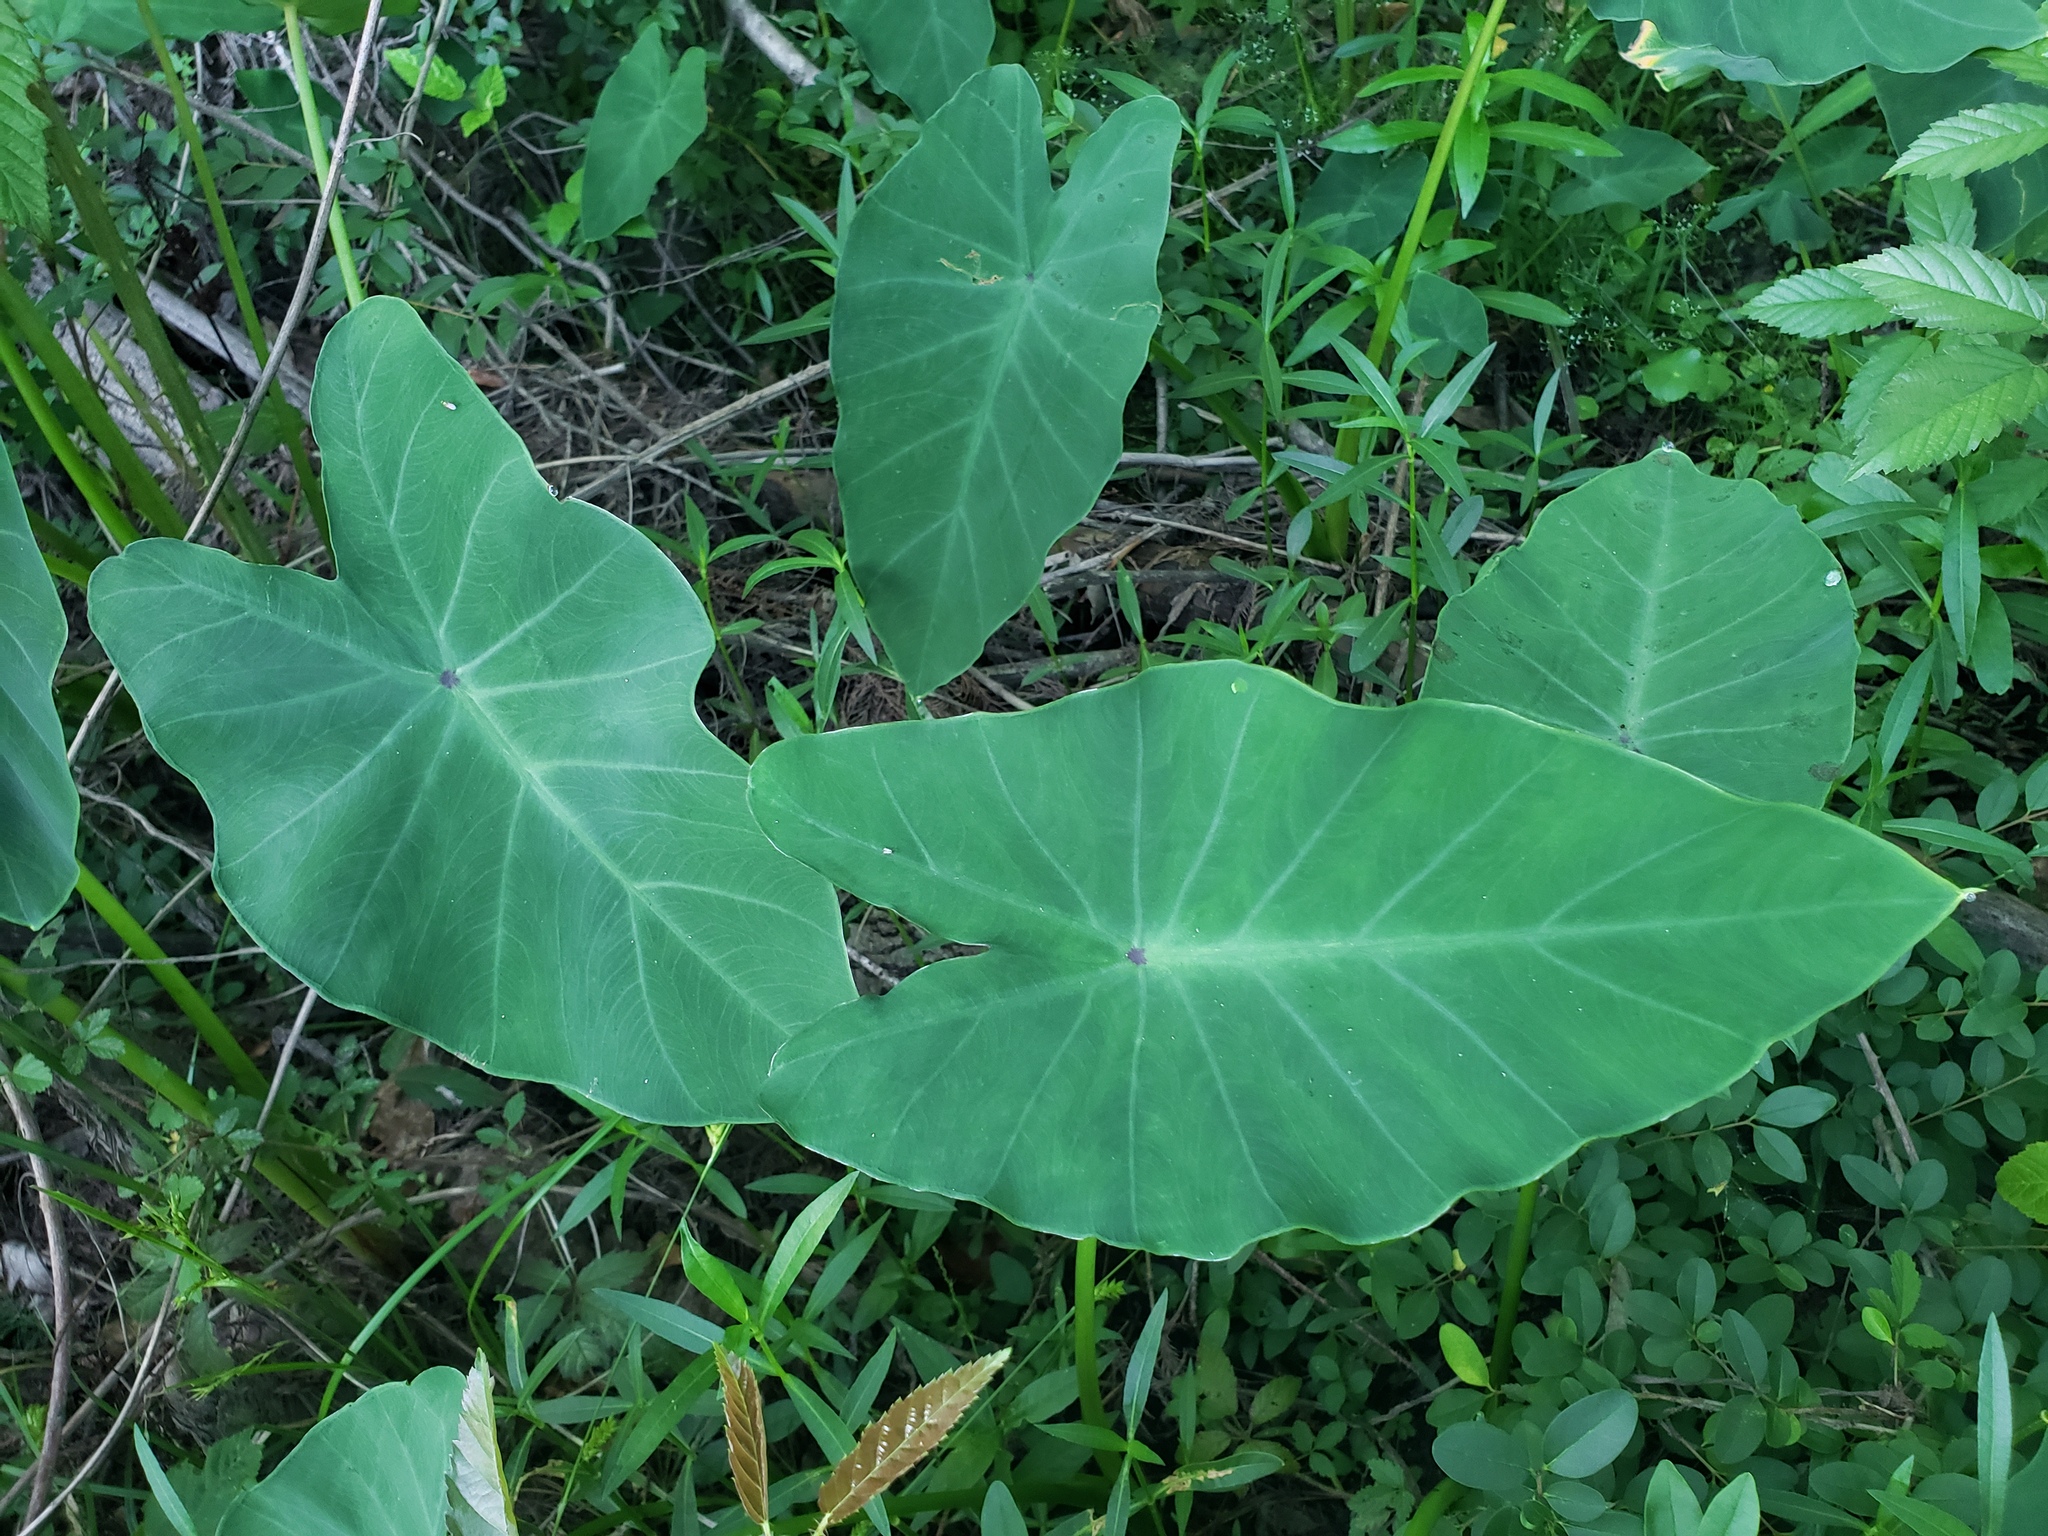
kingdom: Plantae
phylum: Tracheophyta
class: Liliopsida
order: Alismatales
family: Araceae
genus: Colocasia
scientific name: Colocasia esculenta
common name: Taro
